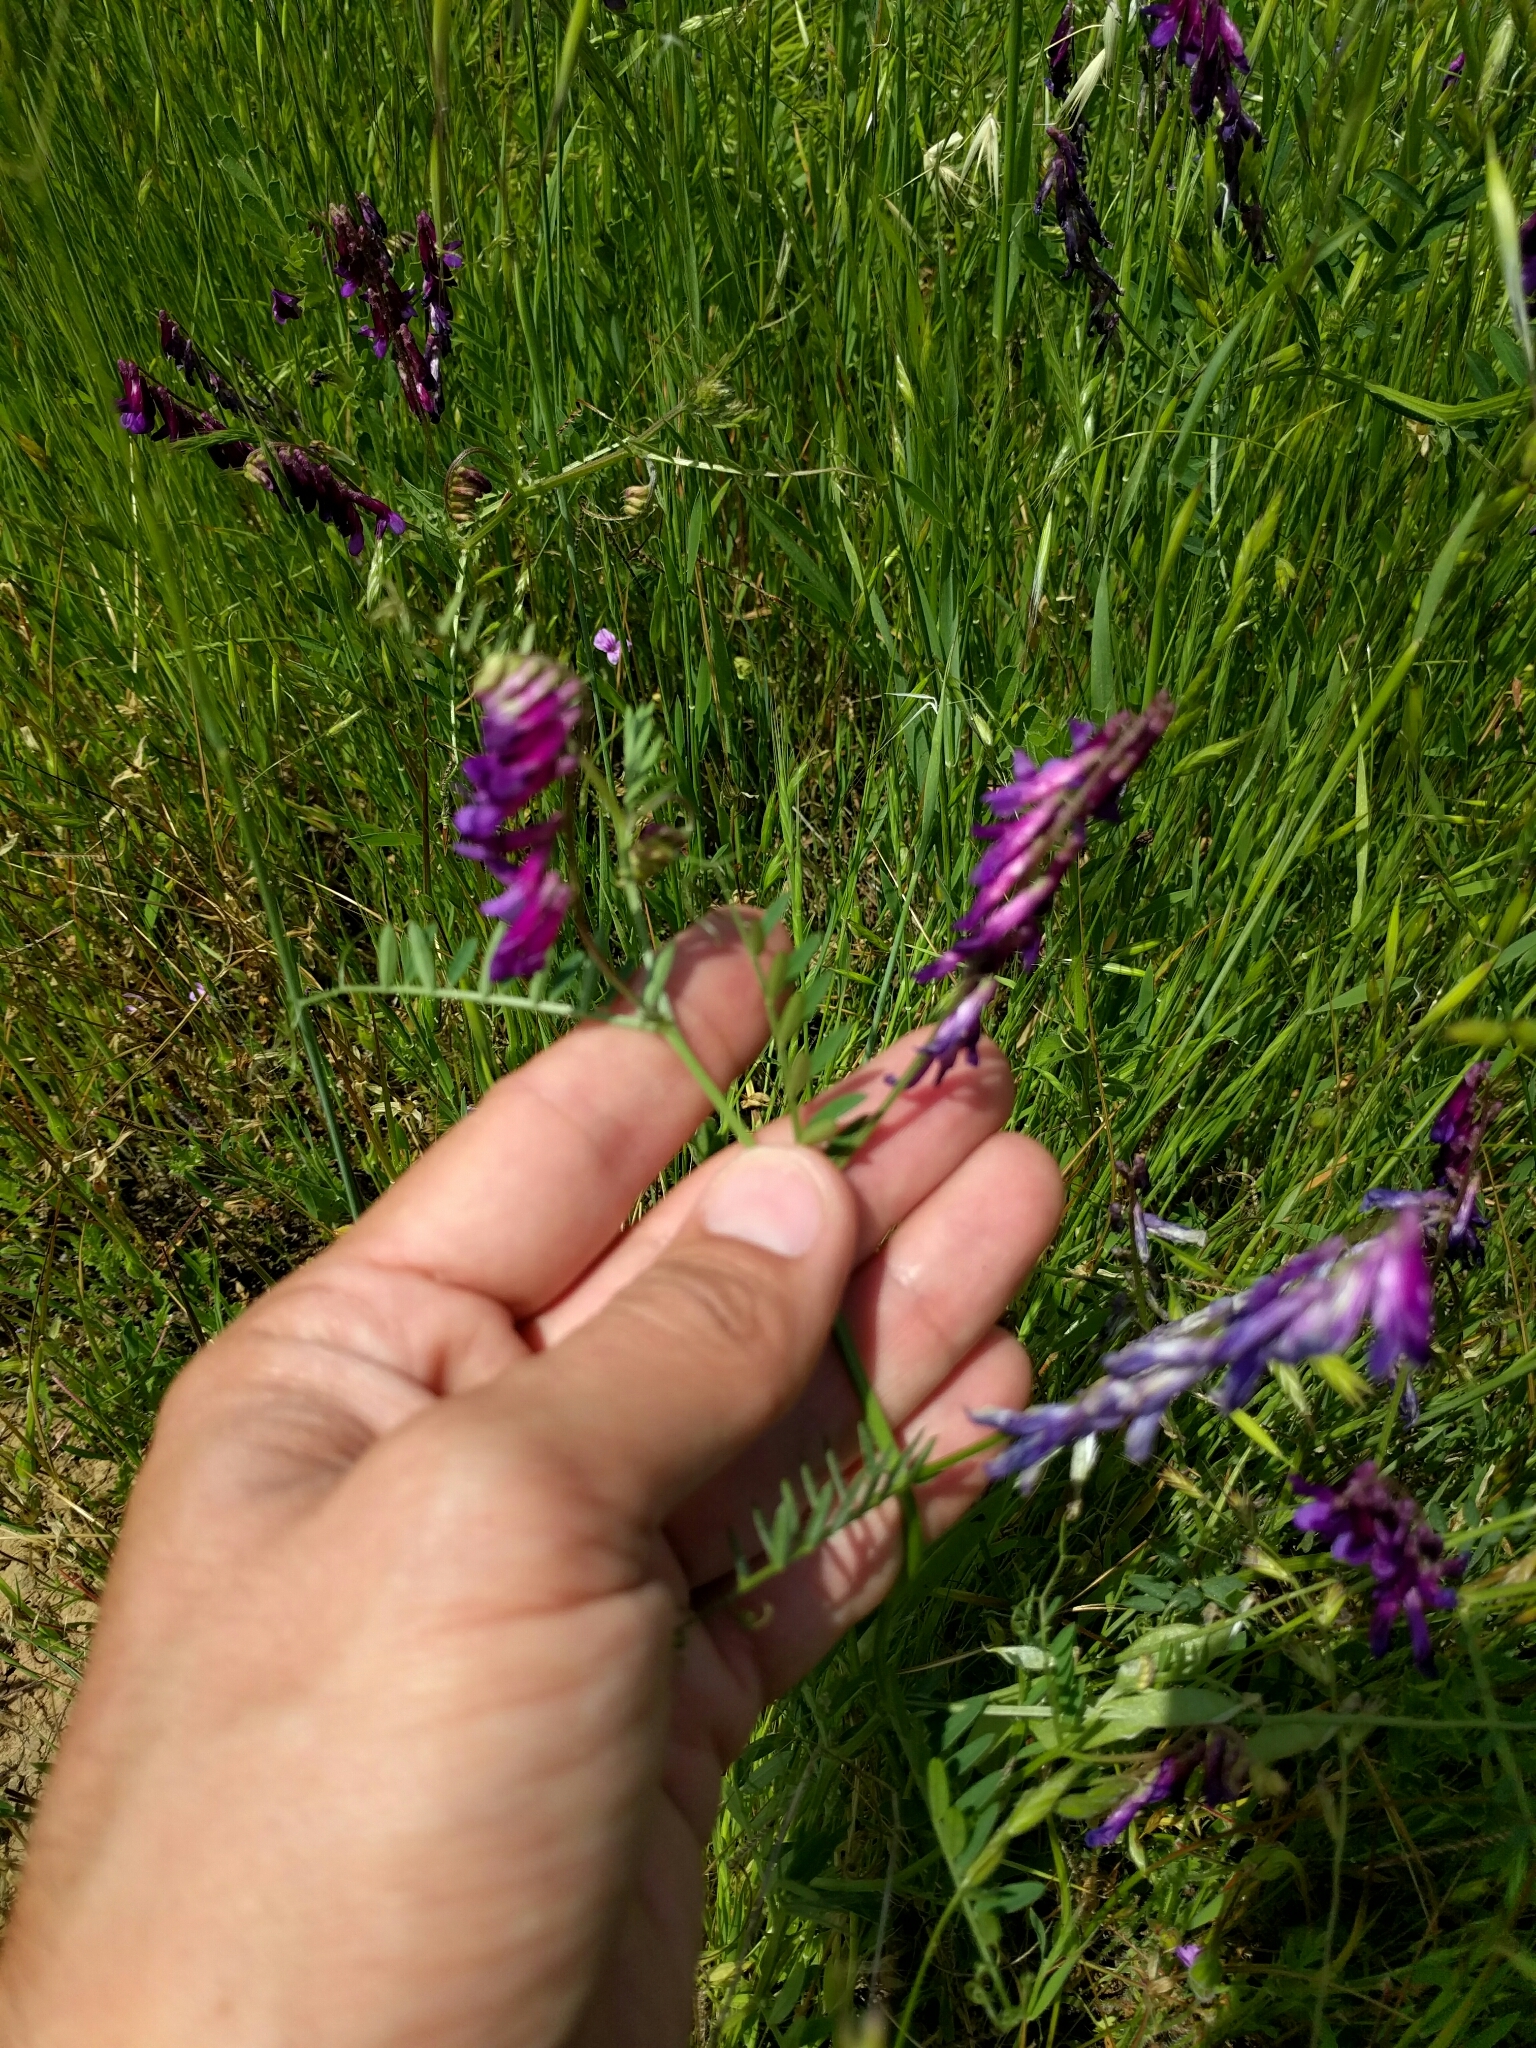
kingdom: Plantae
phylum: Tracheophyta
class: Magnoliopsida
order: Fabales
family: Fabaceae
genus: Vicia
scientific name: Vicia villosa
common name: Fodder vetch
